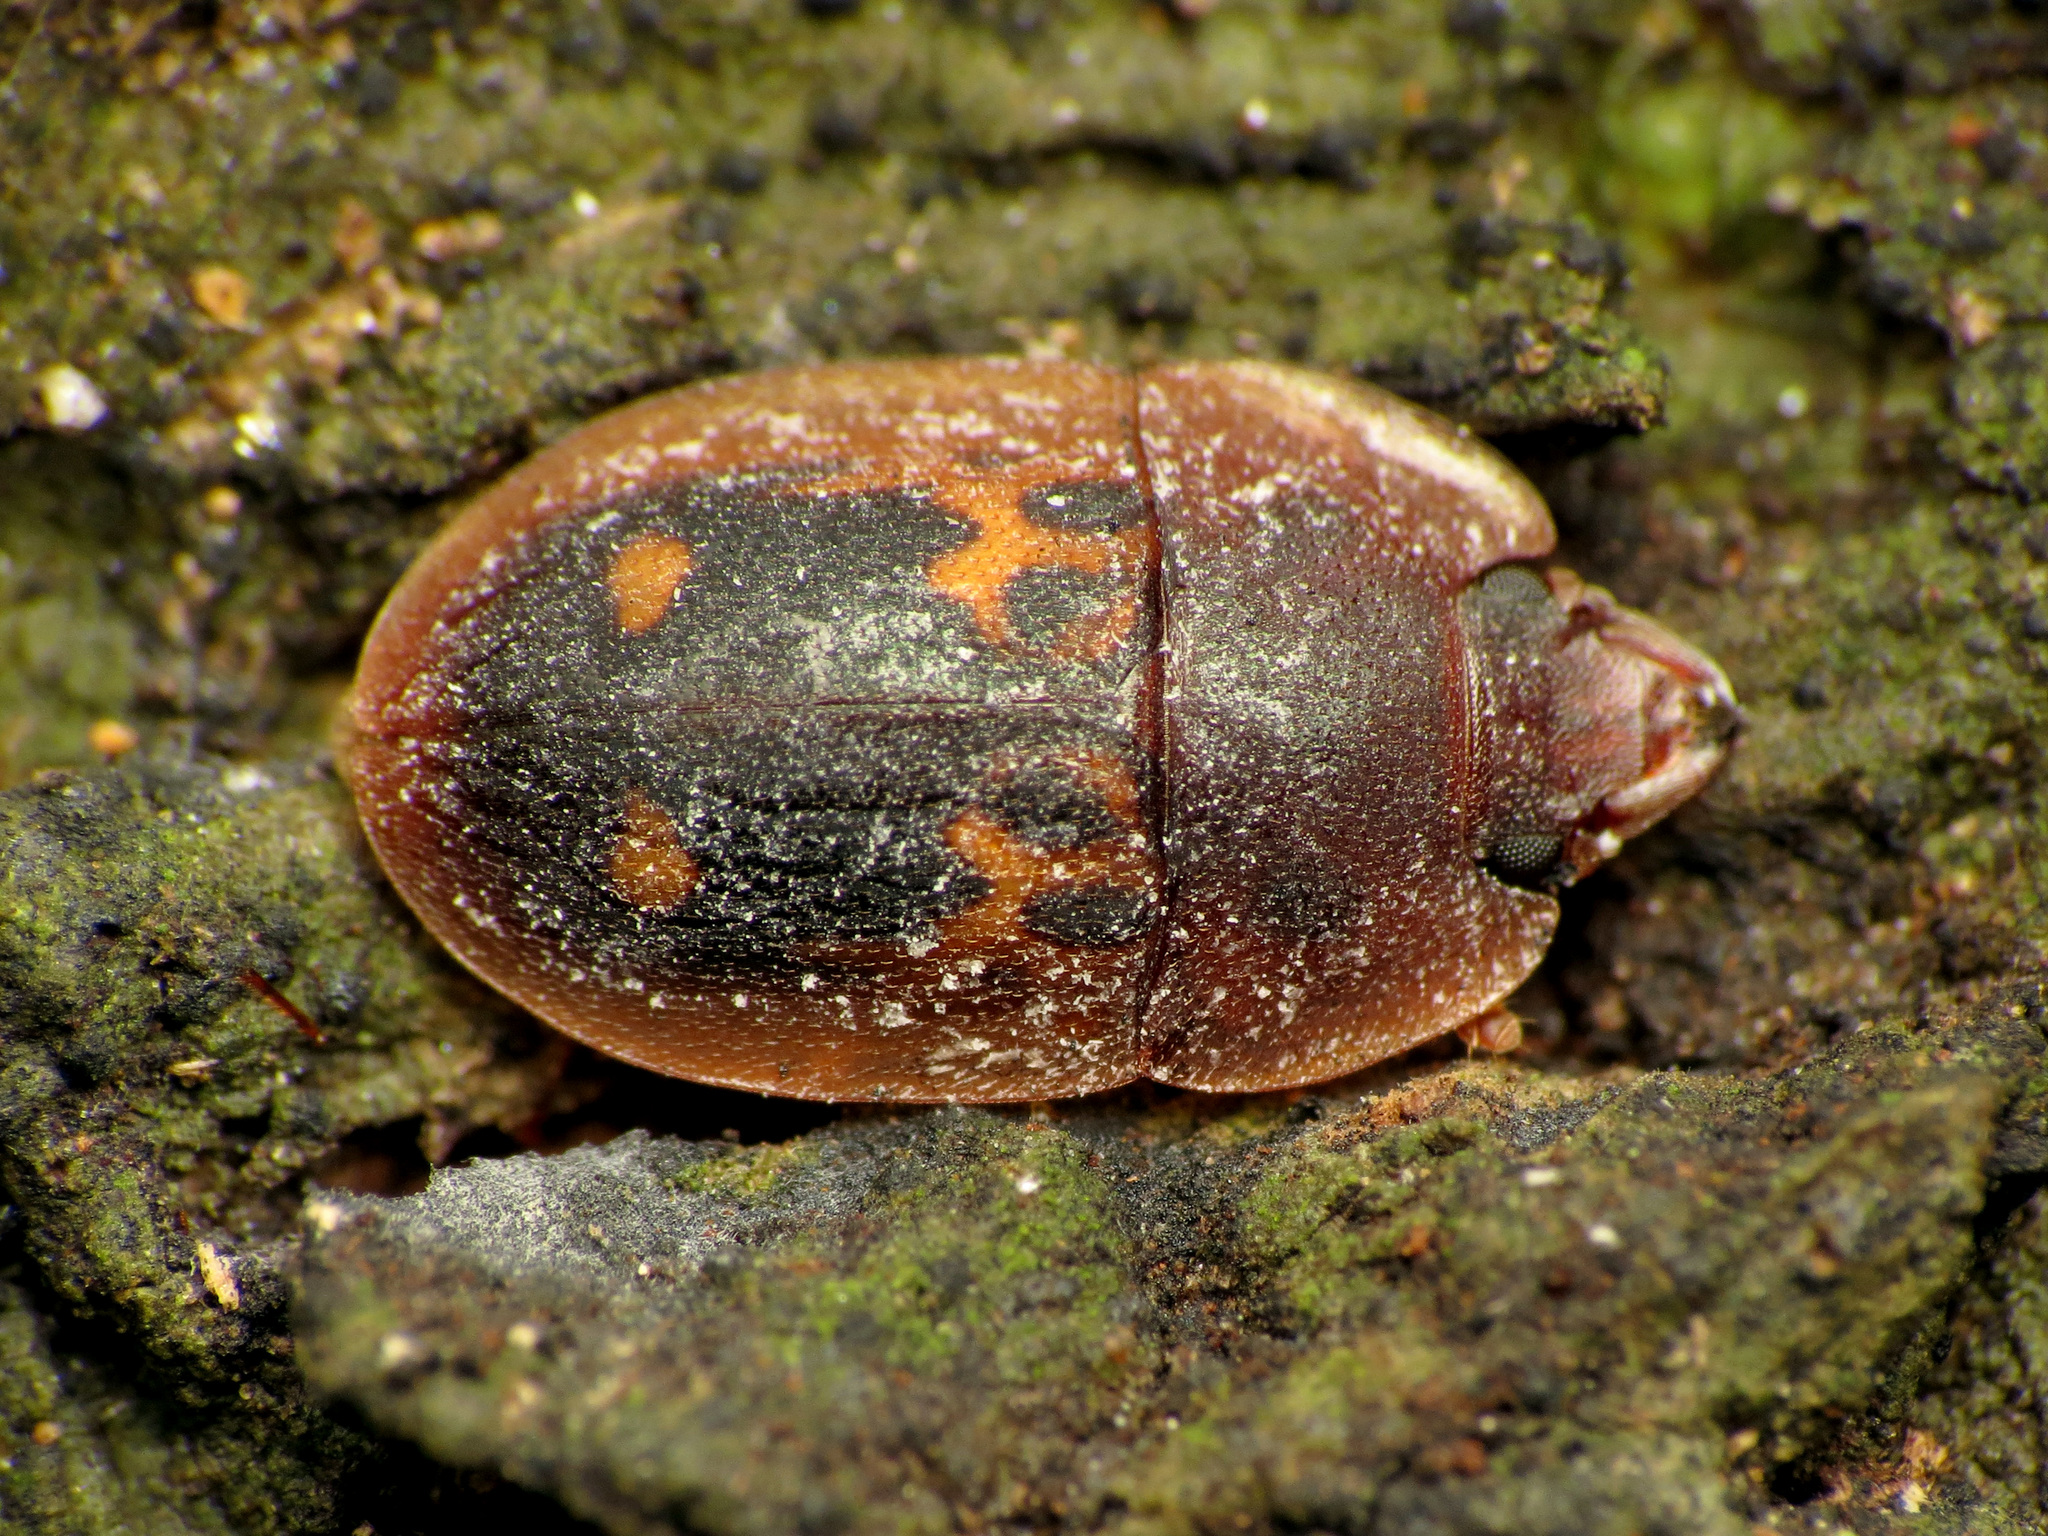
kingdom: Animalia
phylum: Arthropoda
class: Insecta
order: Coleoptera
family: Nitidulidae
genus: Prometopia
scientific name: Prometopia sexmaculata
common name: Six-spotted sap-feeding beetle
